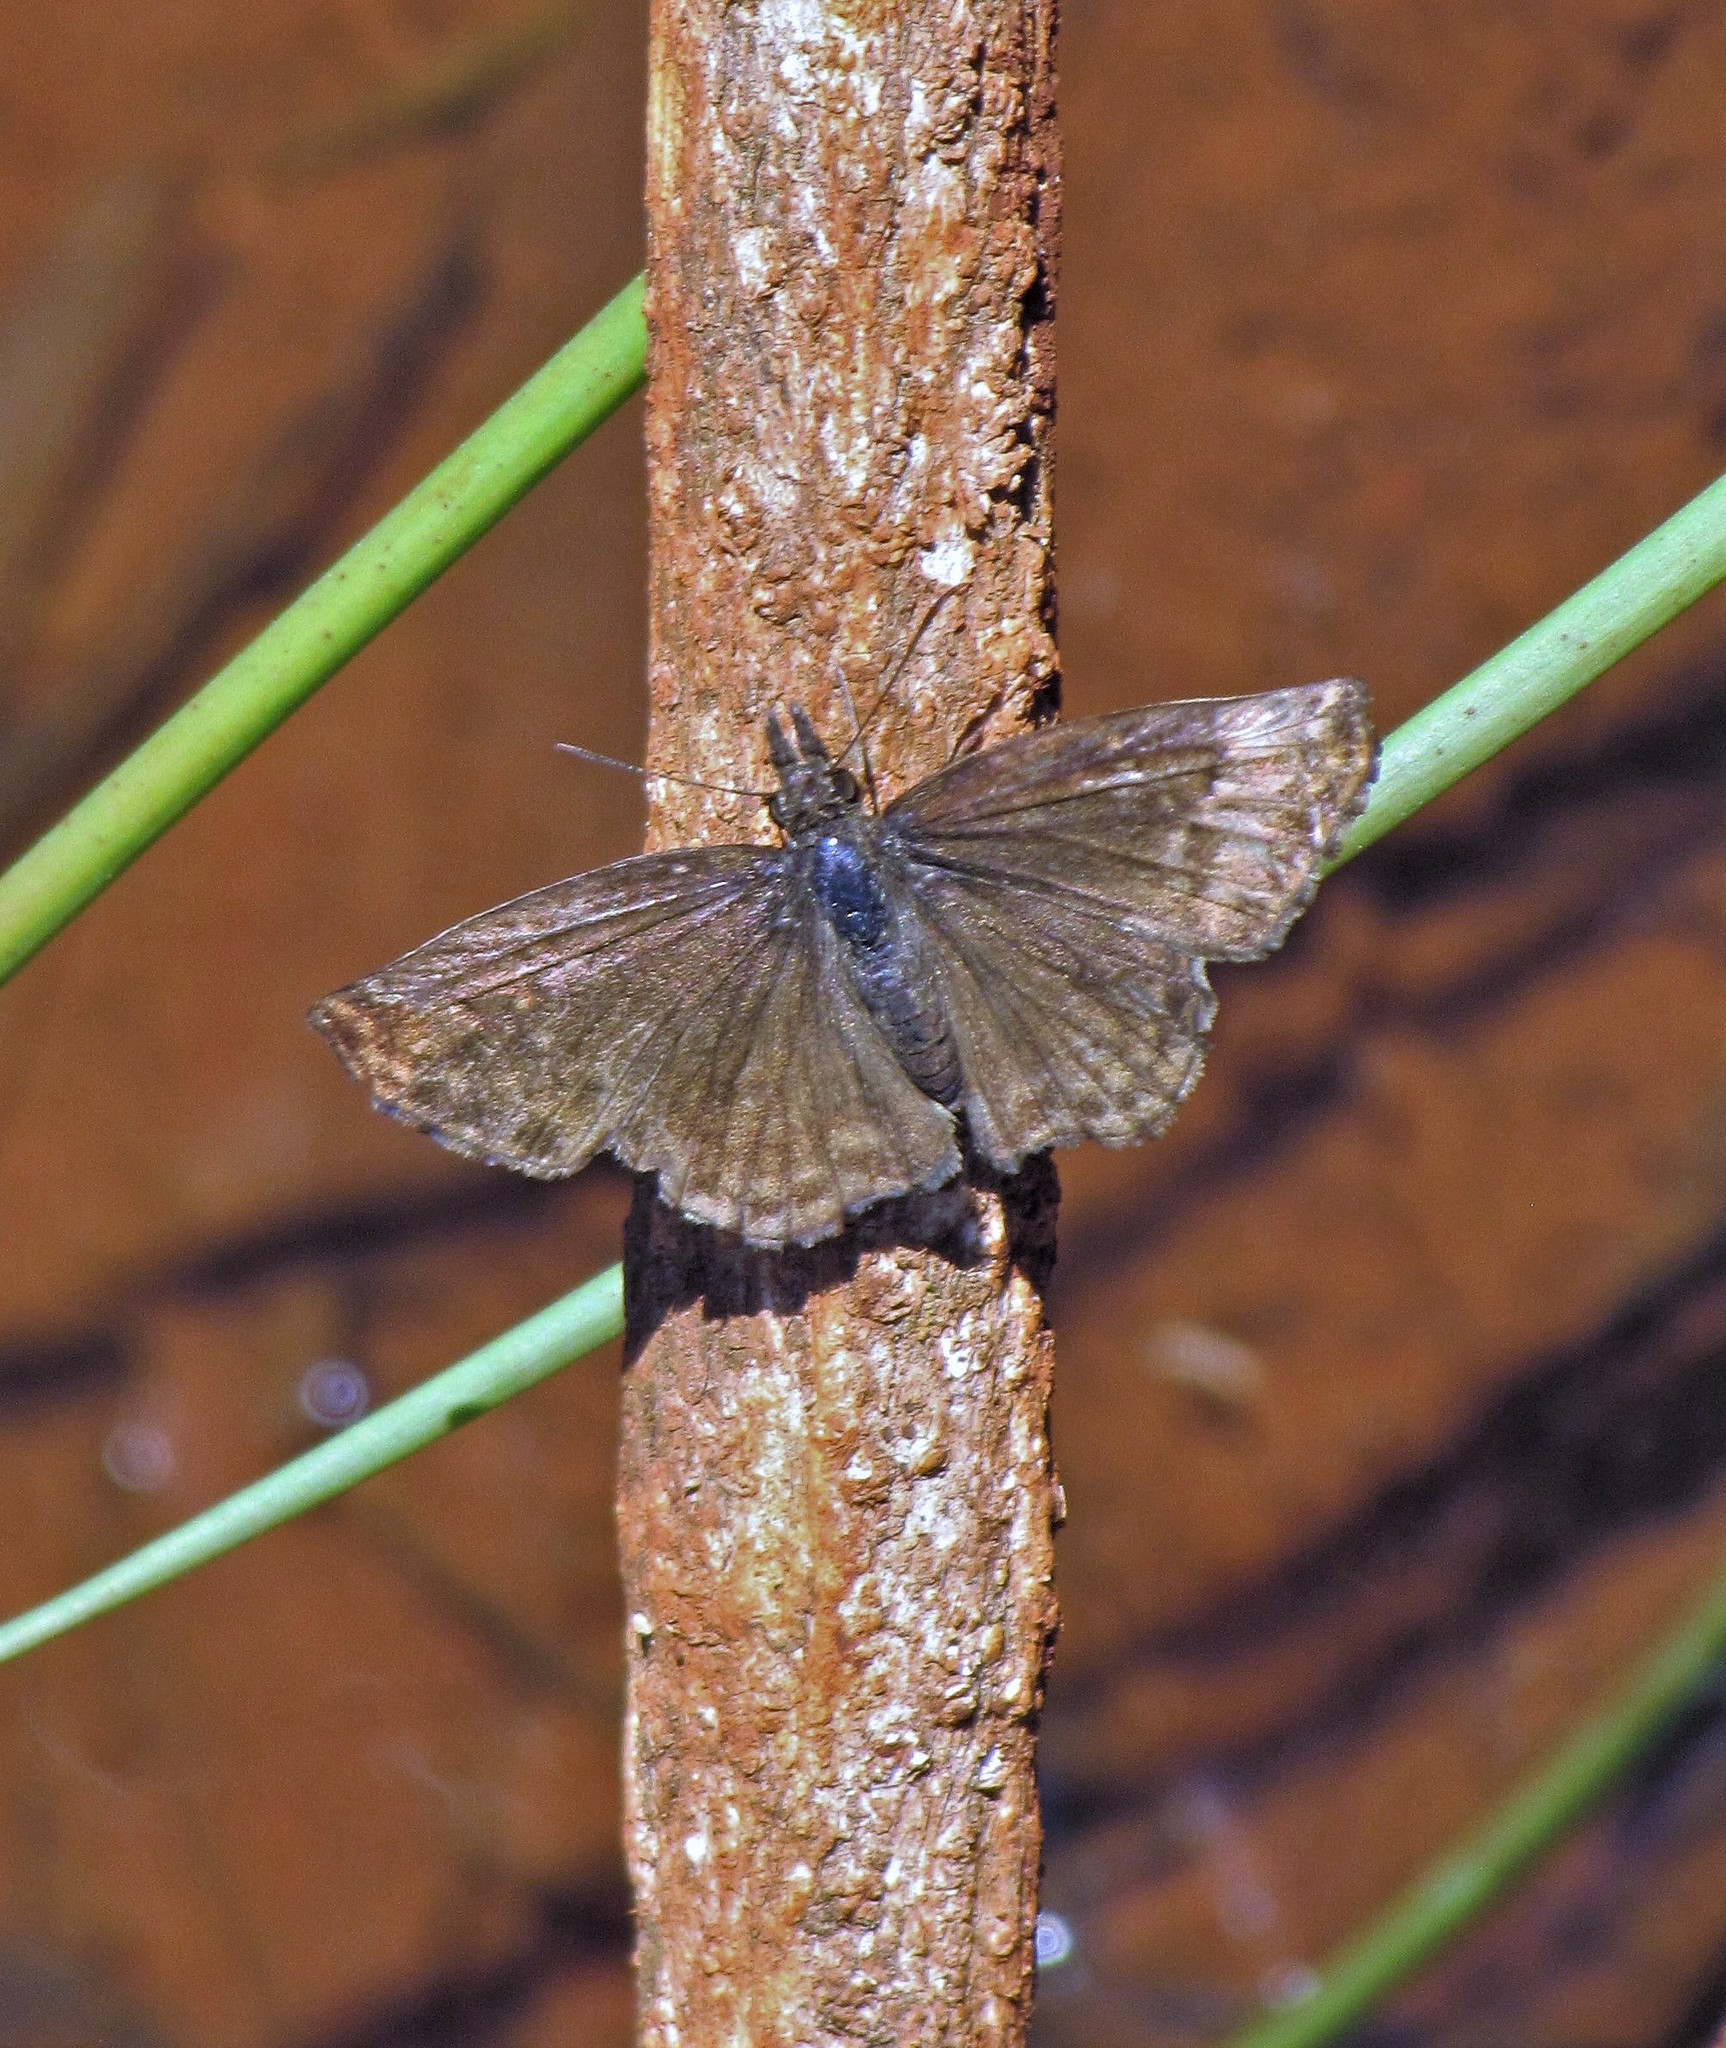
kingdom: Animalia
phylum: Arthropoda
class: Insecta
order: Lepidoptera
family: Hesperiidae
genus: Anisochoria
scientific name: Anisochoria sublimbata
